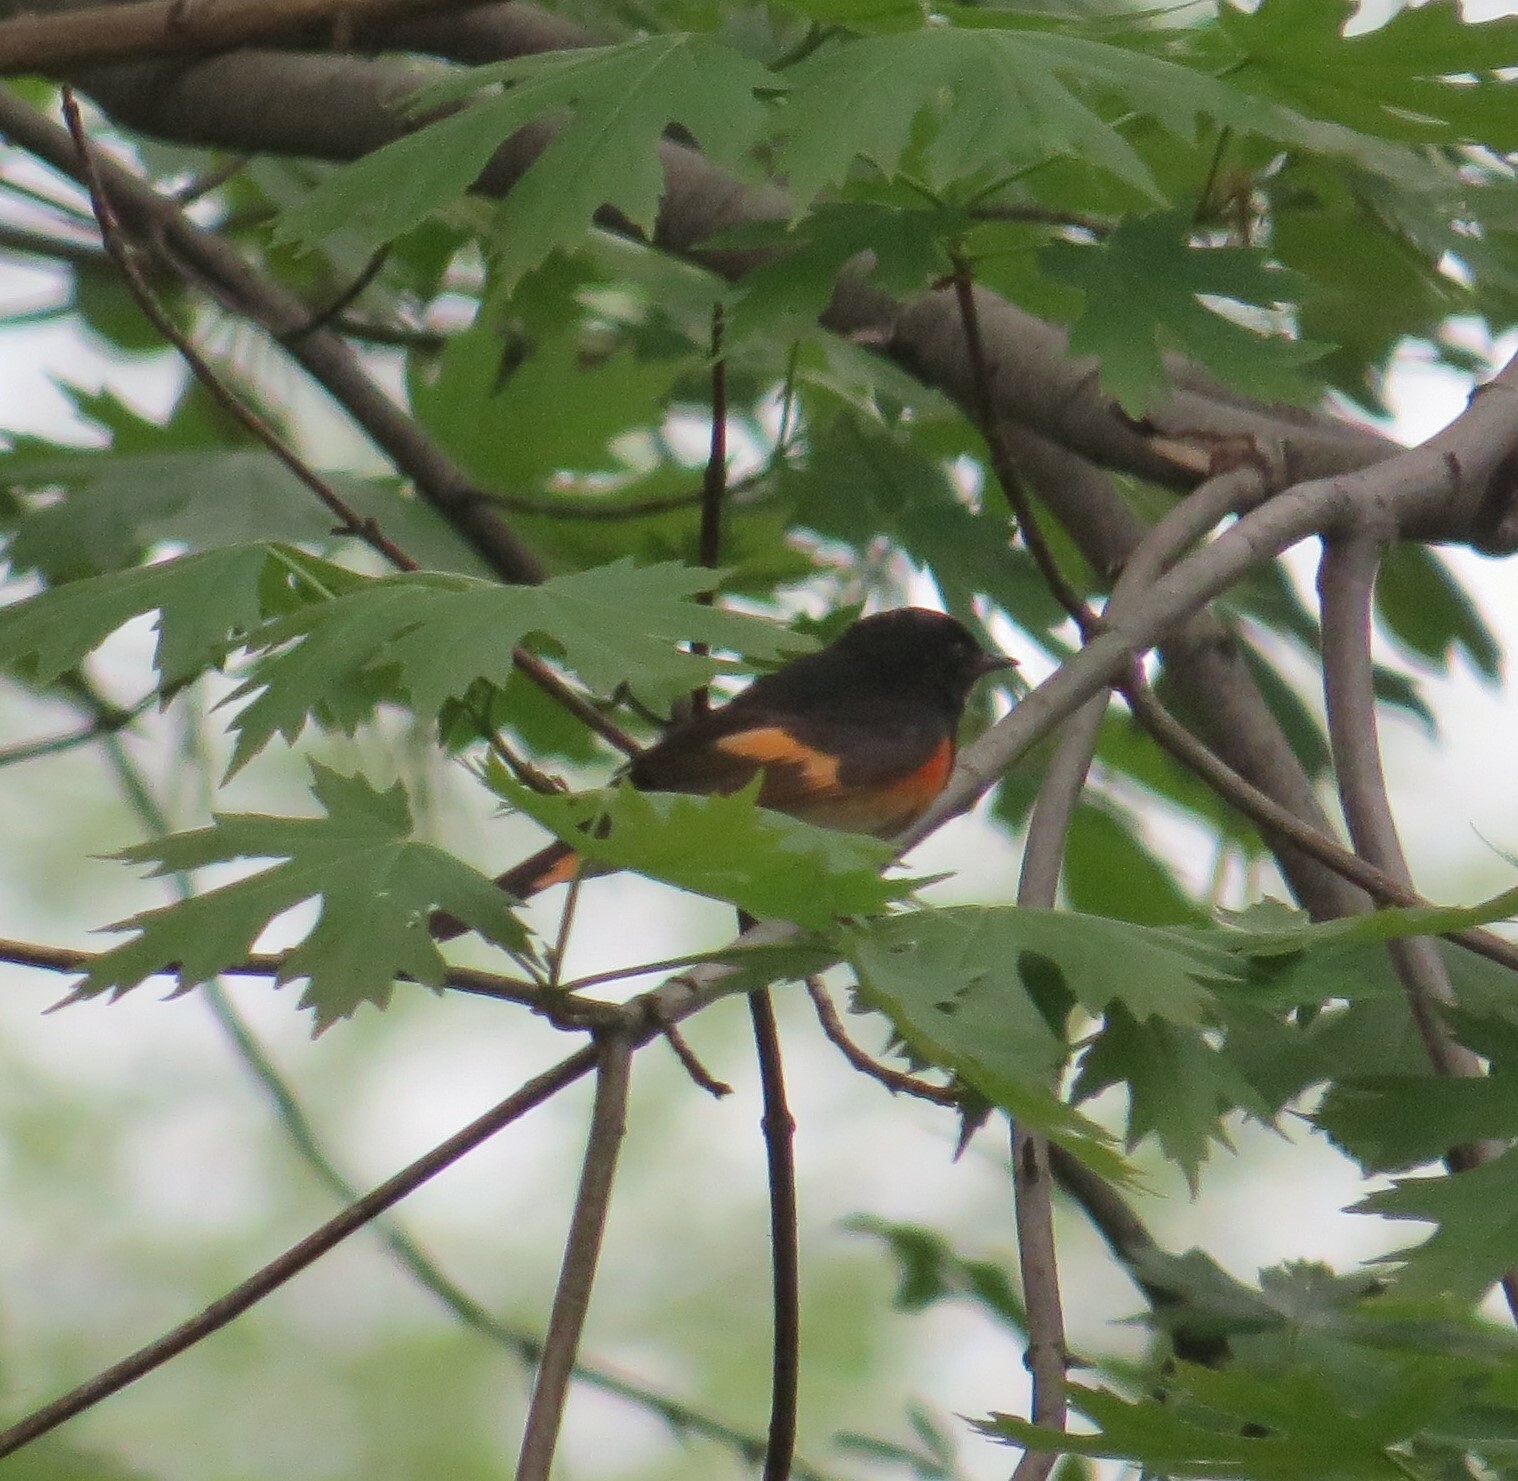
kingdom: Animalia
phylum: Chordata
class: Aves
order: Passeriformes
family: Parulidae
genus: Setophaga
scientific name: Setophaga ruticilla
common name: American redstart
